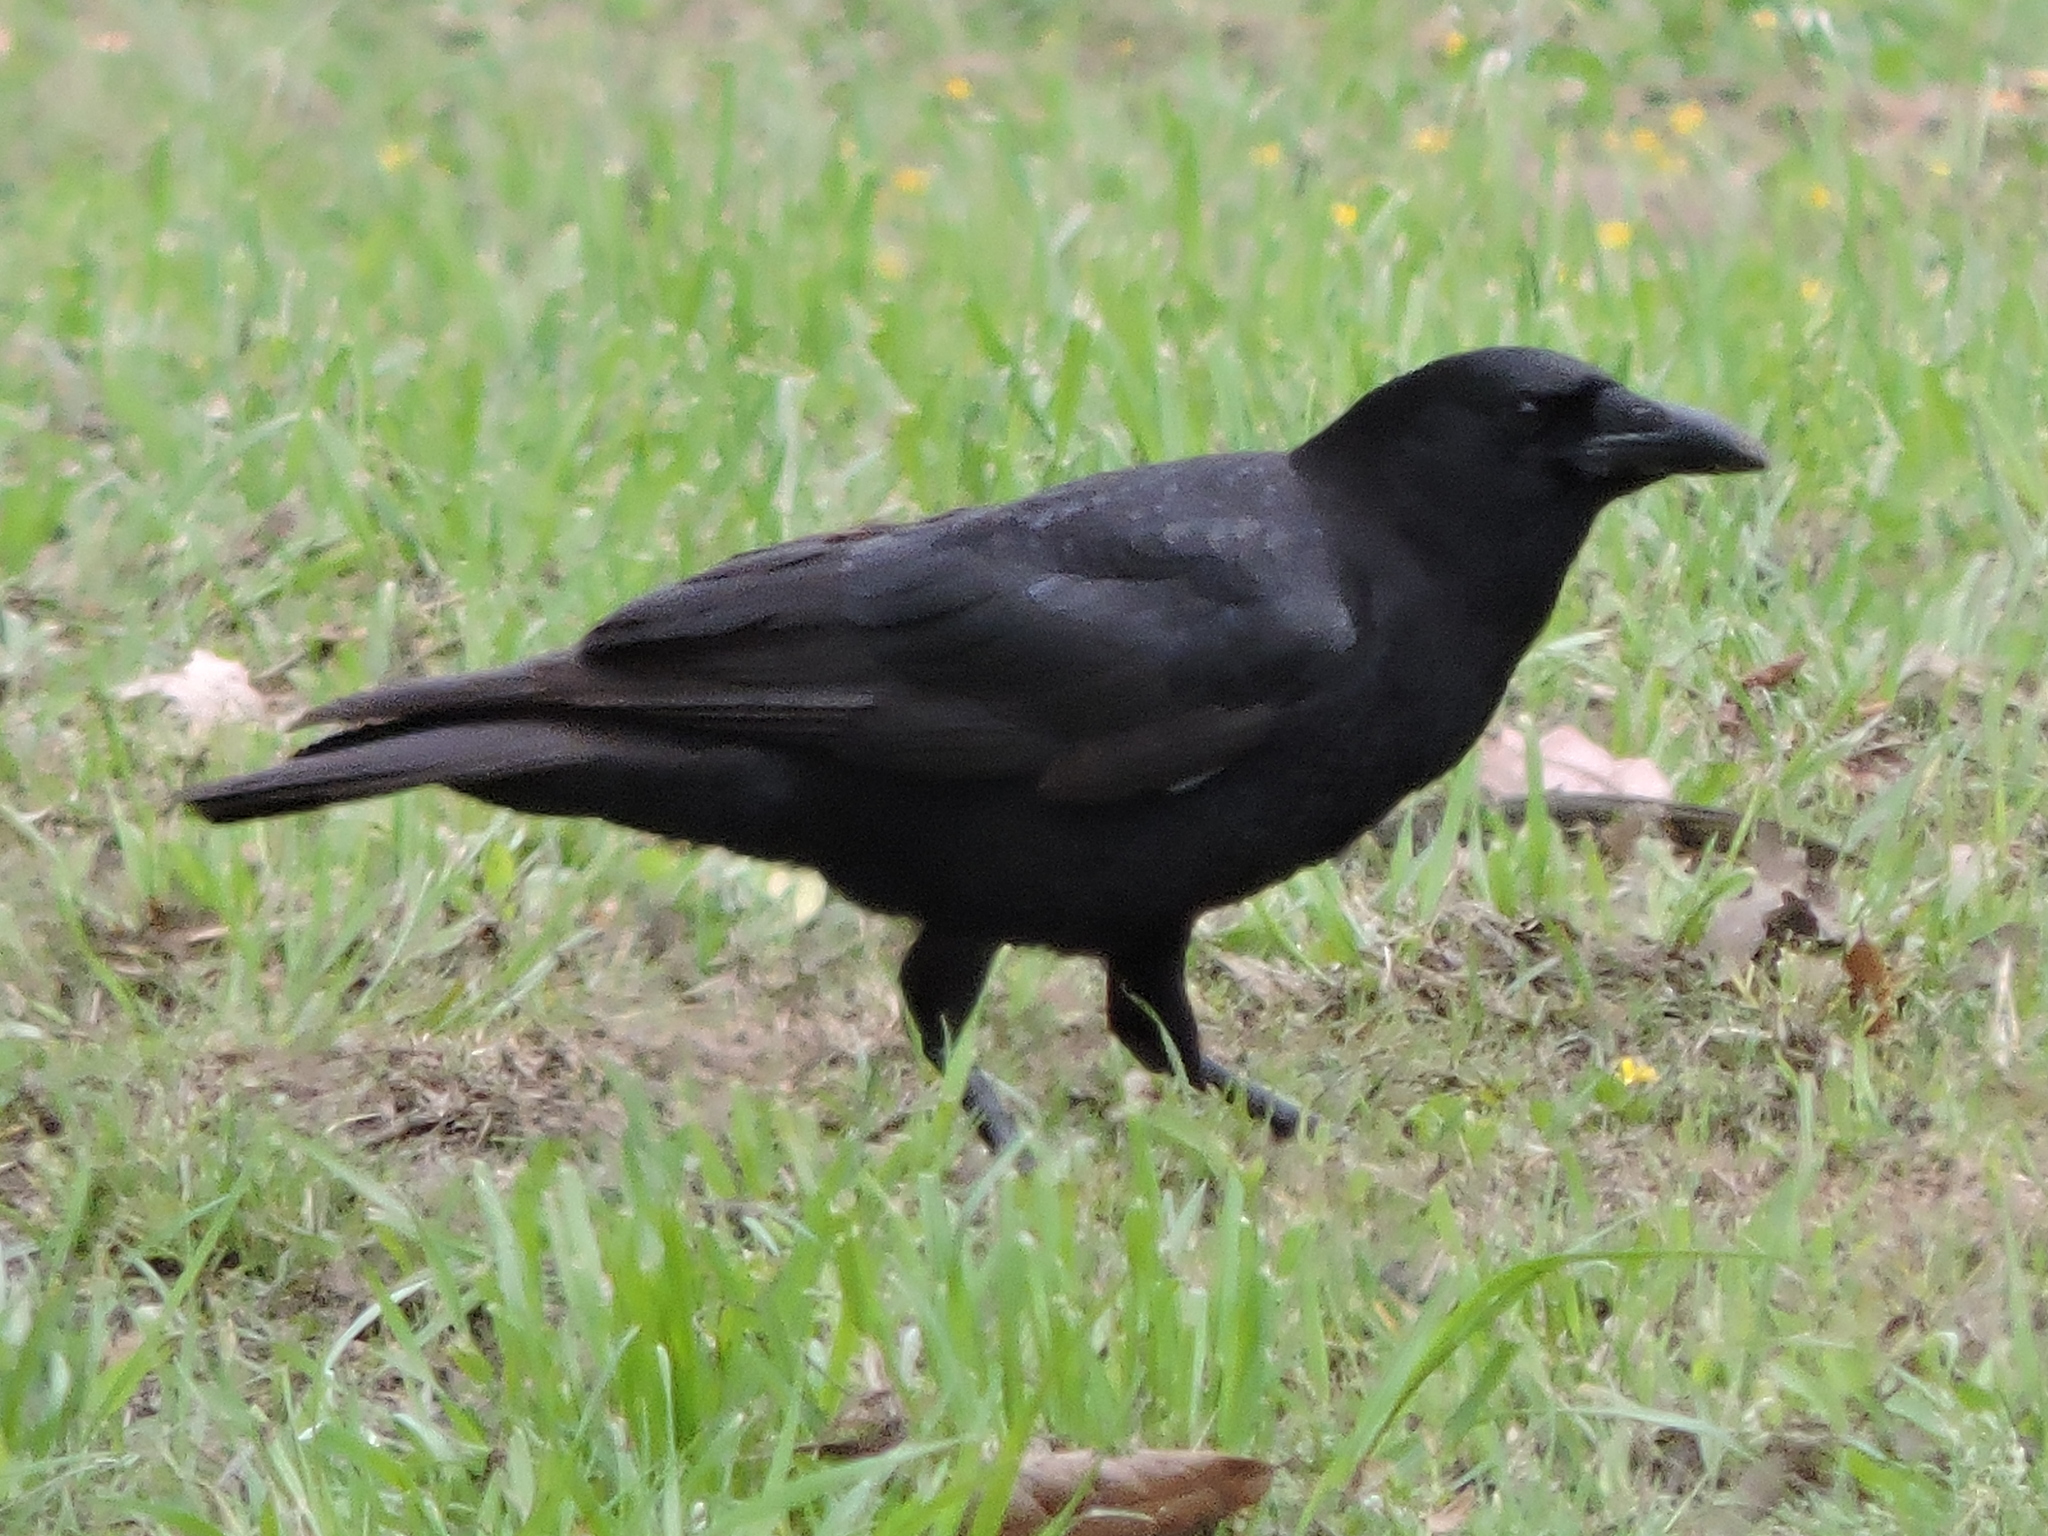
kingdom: Animalia
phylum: Chordata
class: Aves
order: Passeriformes
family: Corvidae
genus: Corvus
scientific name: Corvus brachyrhynchos
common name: American crow
